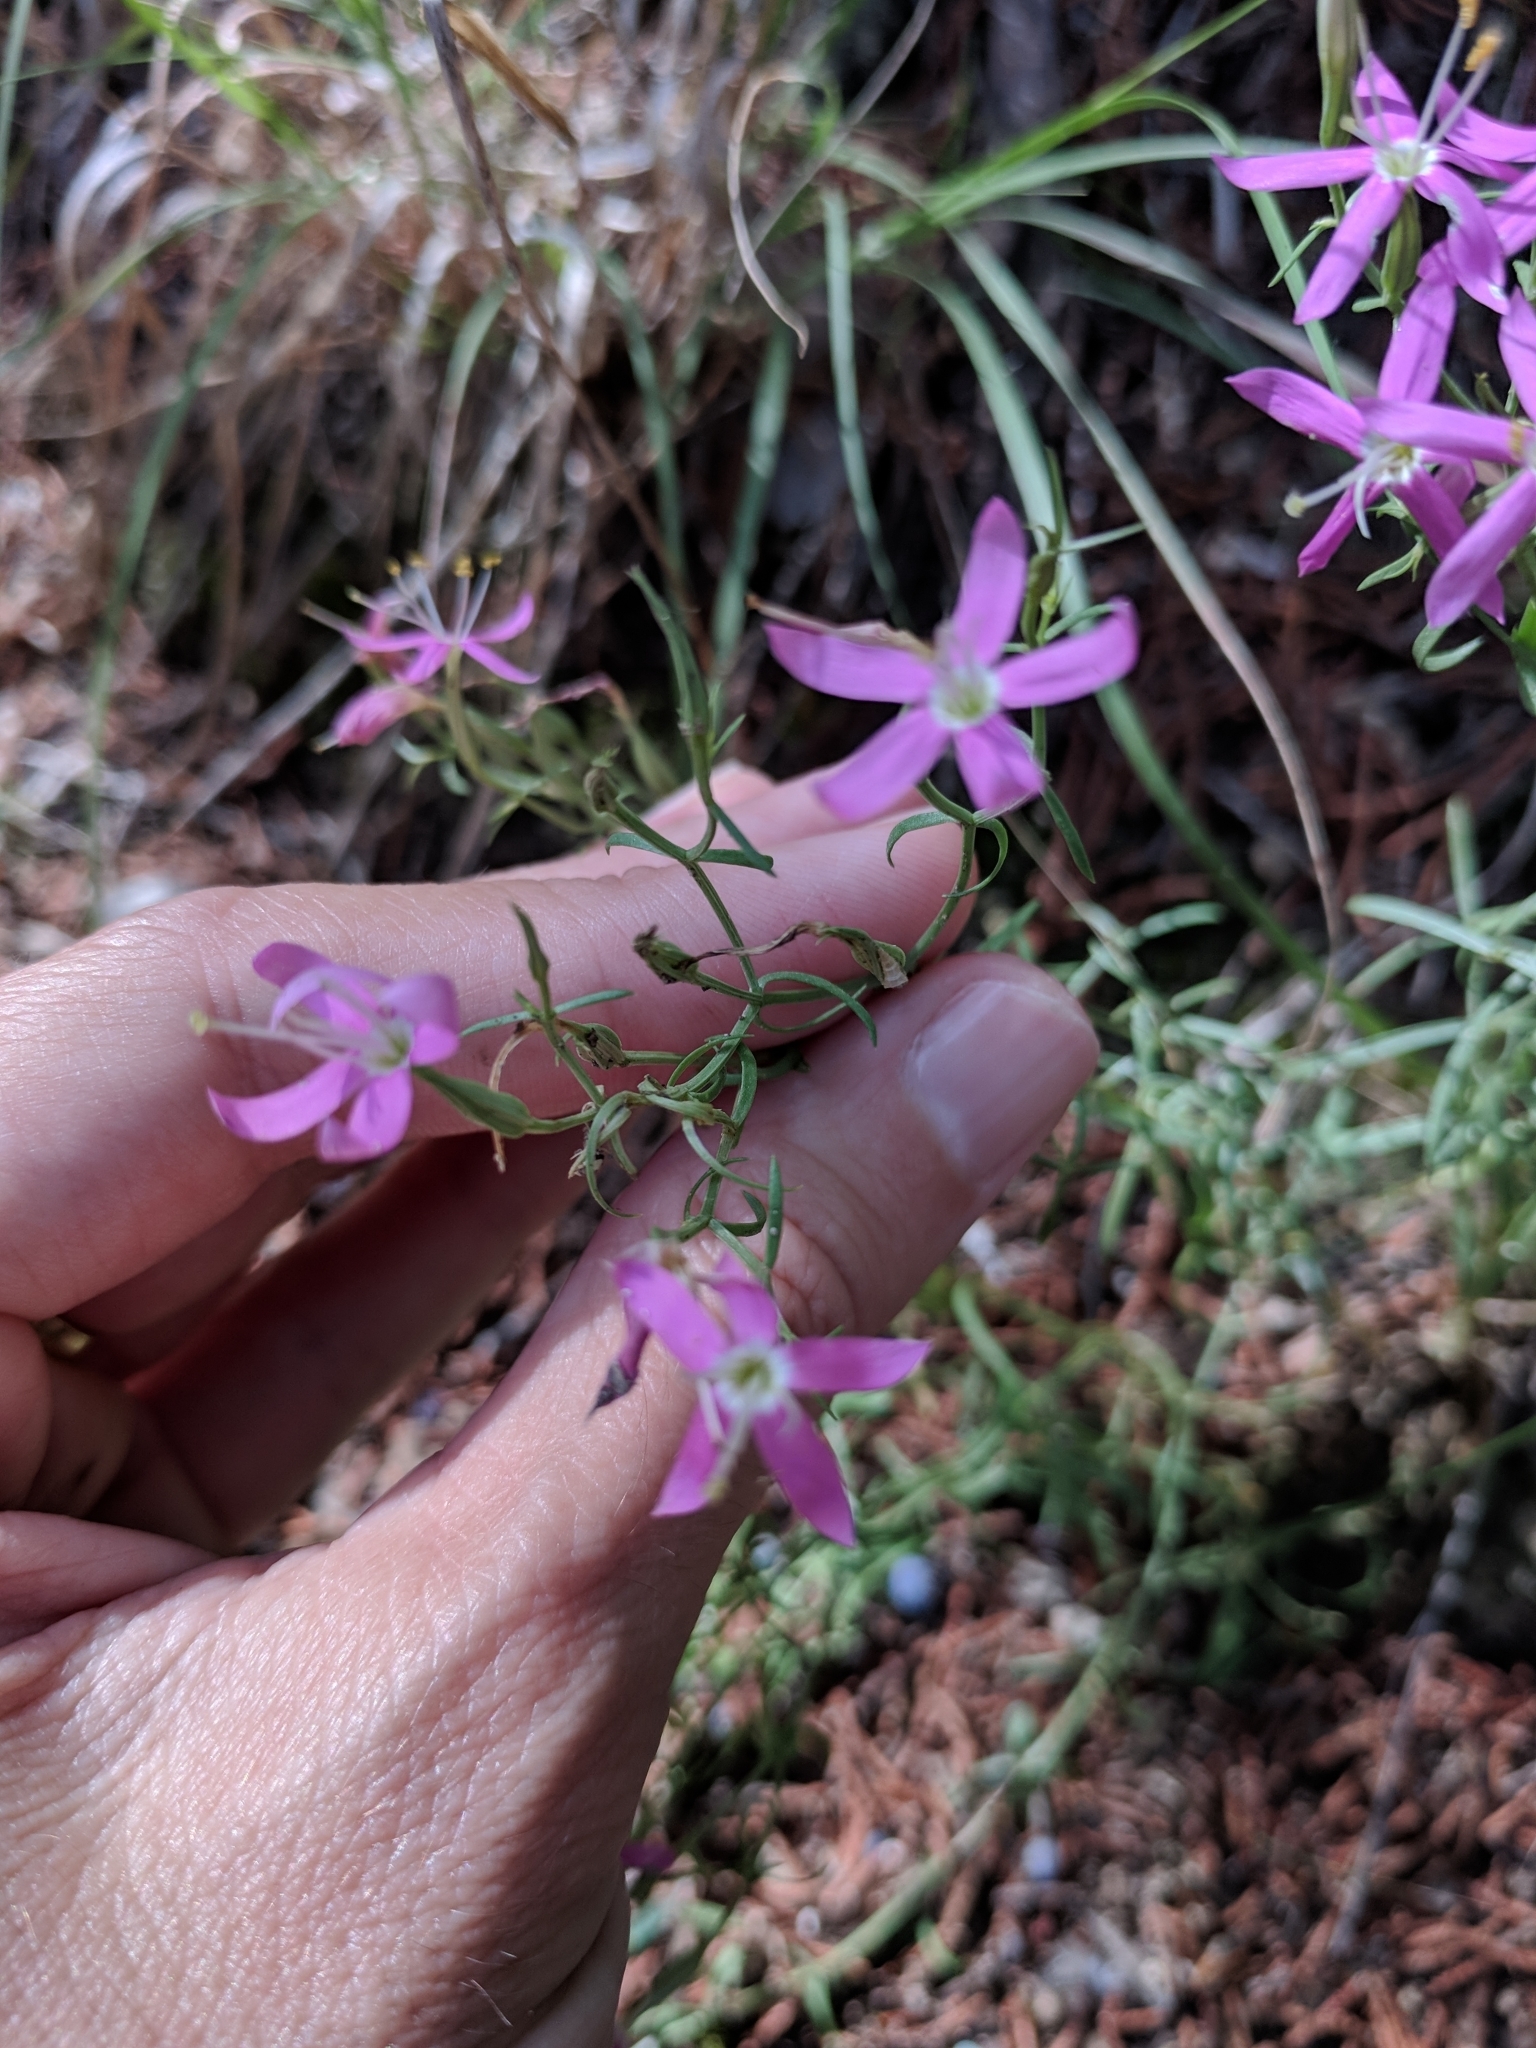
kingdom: Plantae
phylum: Tracheophyta
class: Magnoliopsida
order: Gentianales
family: Gentianaceae
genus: Zeltnera
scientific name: Zeltnera beyrichii
